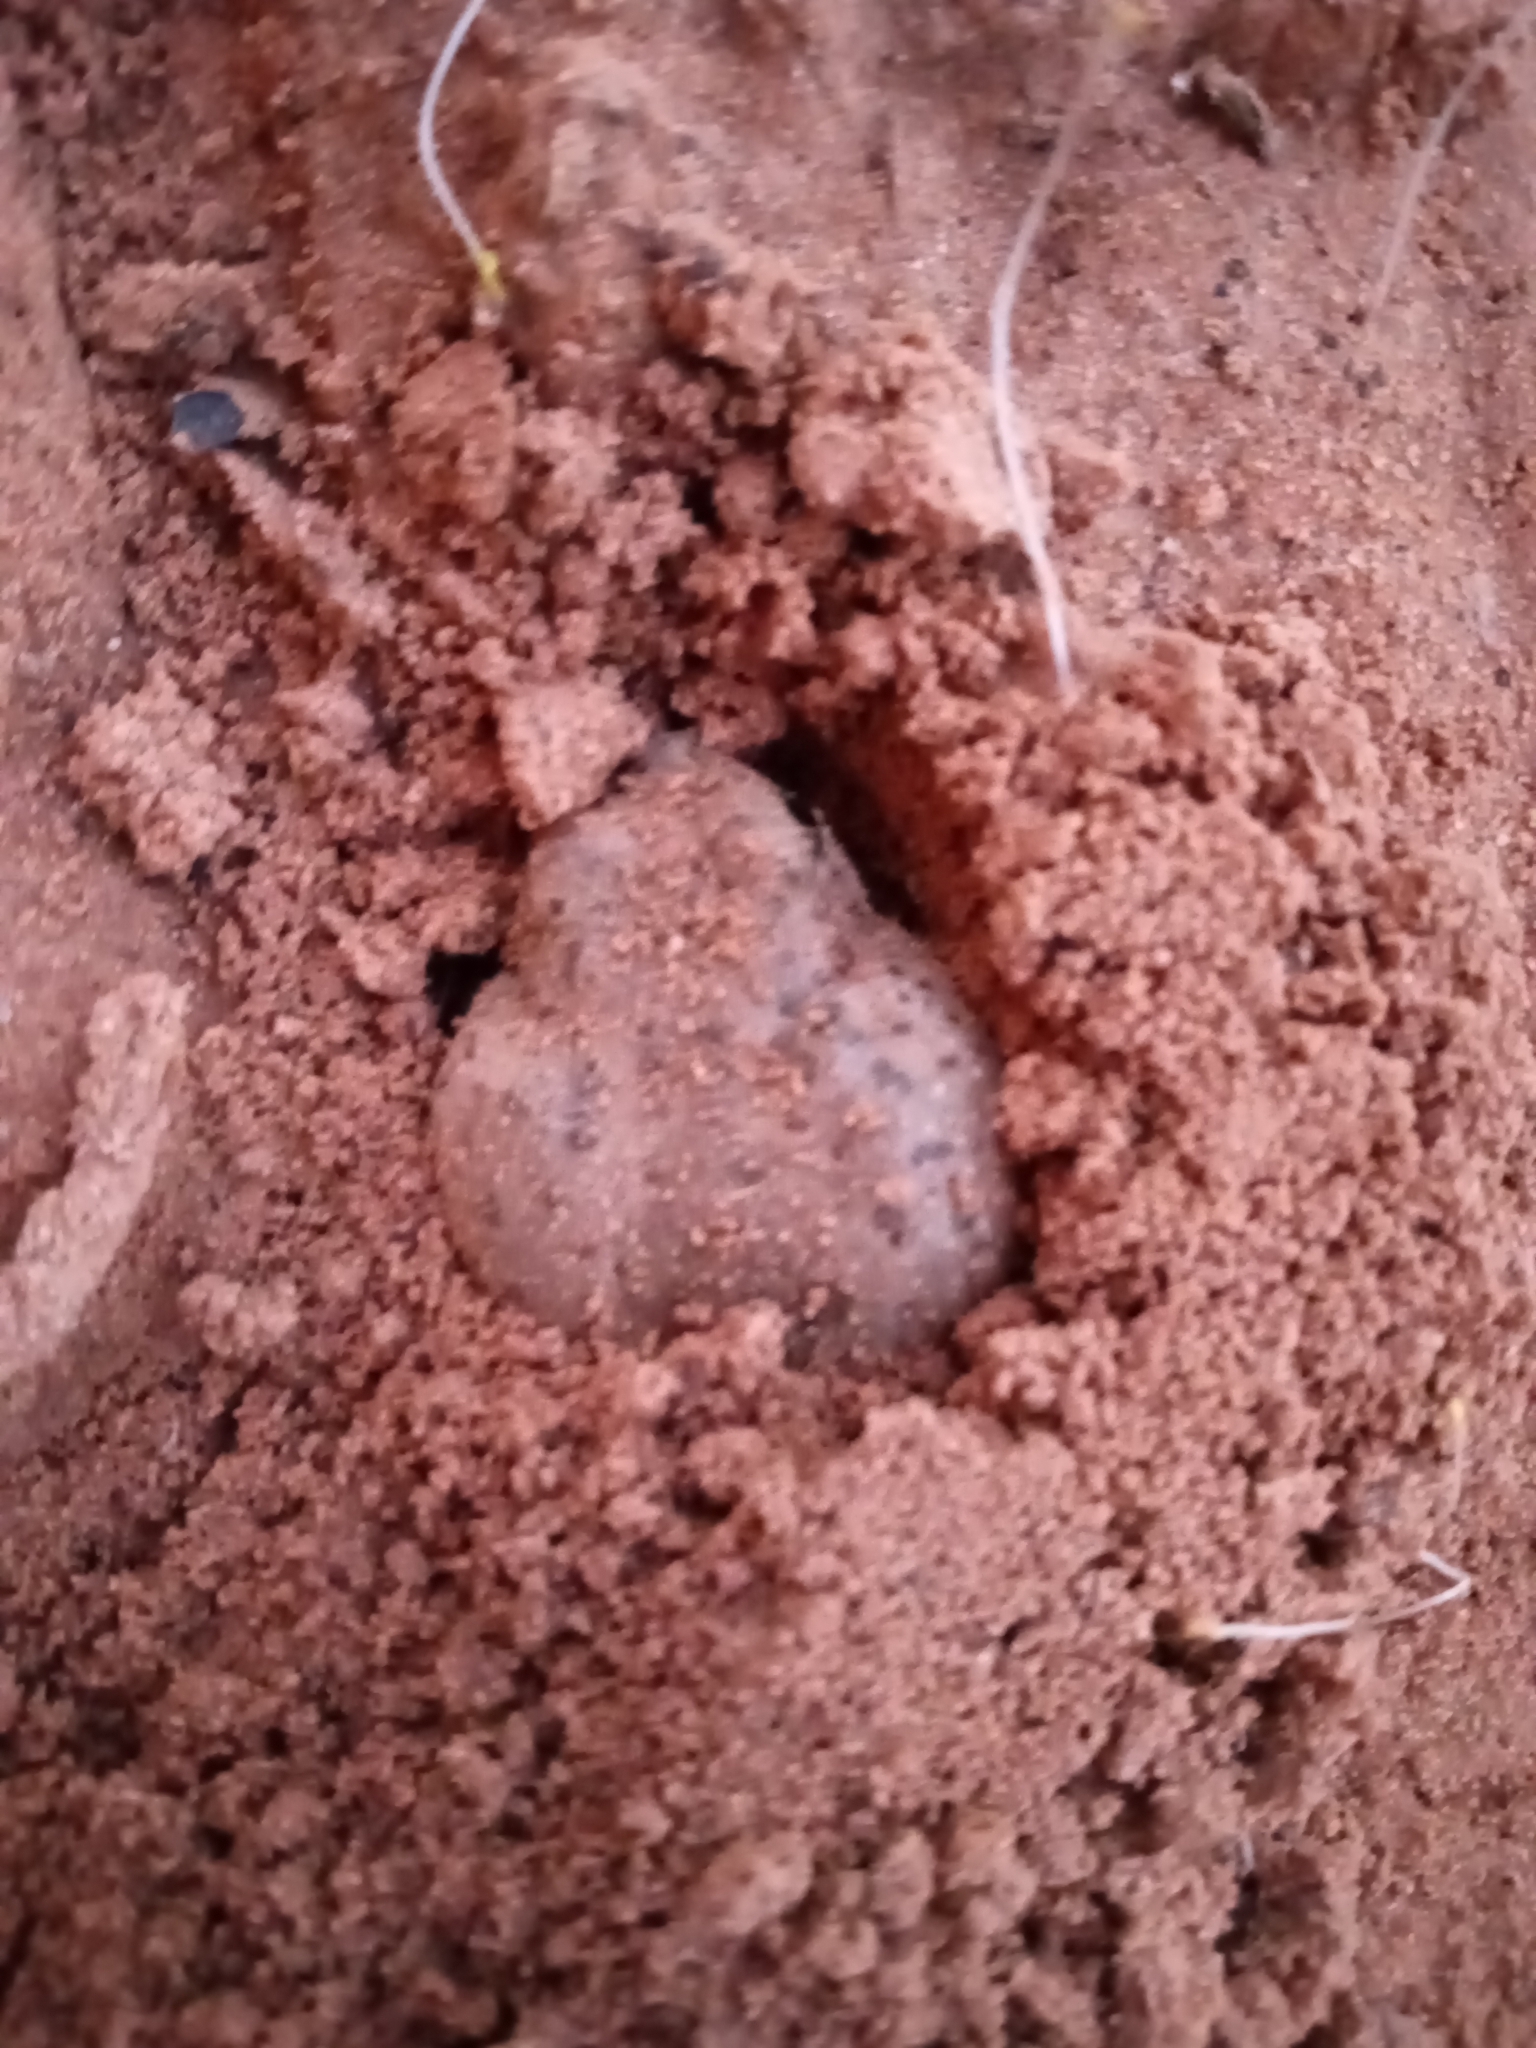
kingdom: Animalia
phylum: Chordata
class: Amphibia
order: Anura
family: Bufonidae
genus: Anaxyrus
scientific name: Anaxyrus punctatus
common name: Red-spotted toad
